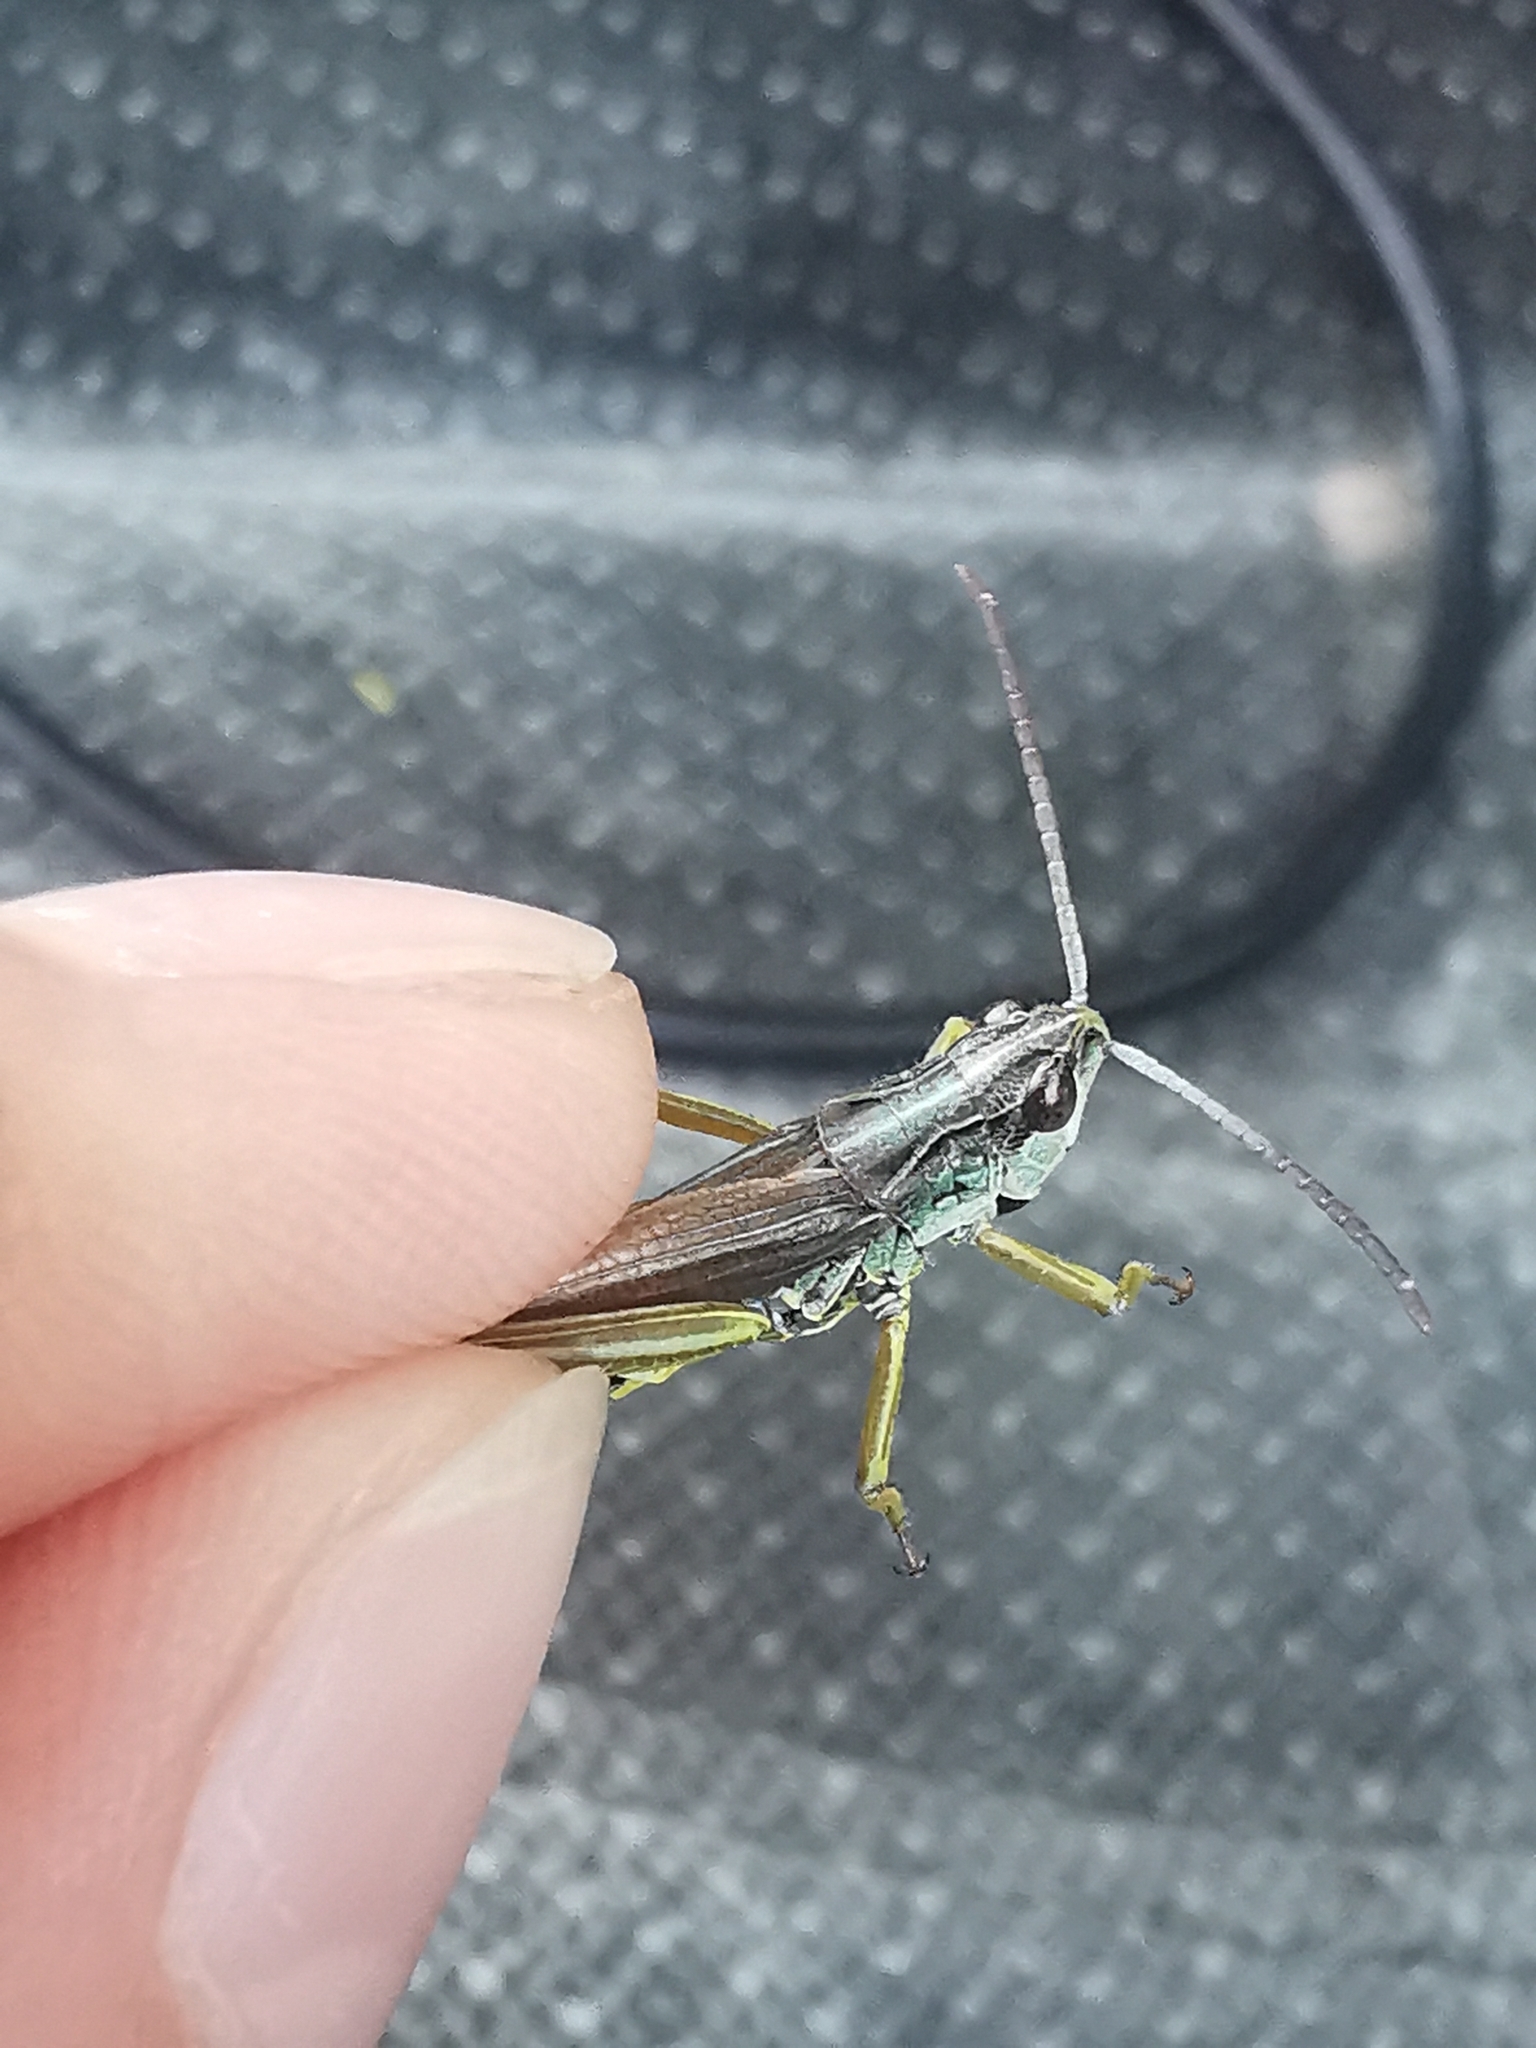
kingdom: Animalia
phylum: Arthropoda
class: Insecta
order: Orthoptera
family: Acrididae
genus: Pseudochorthippus
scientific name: Pseudochorthippus montanus
